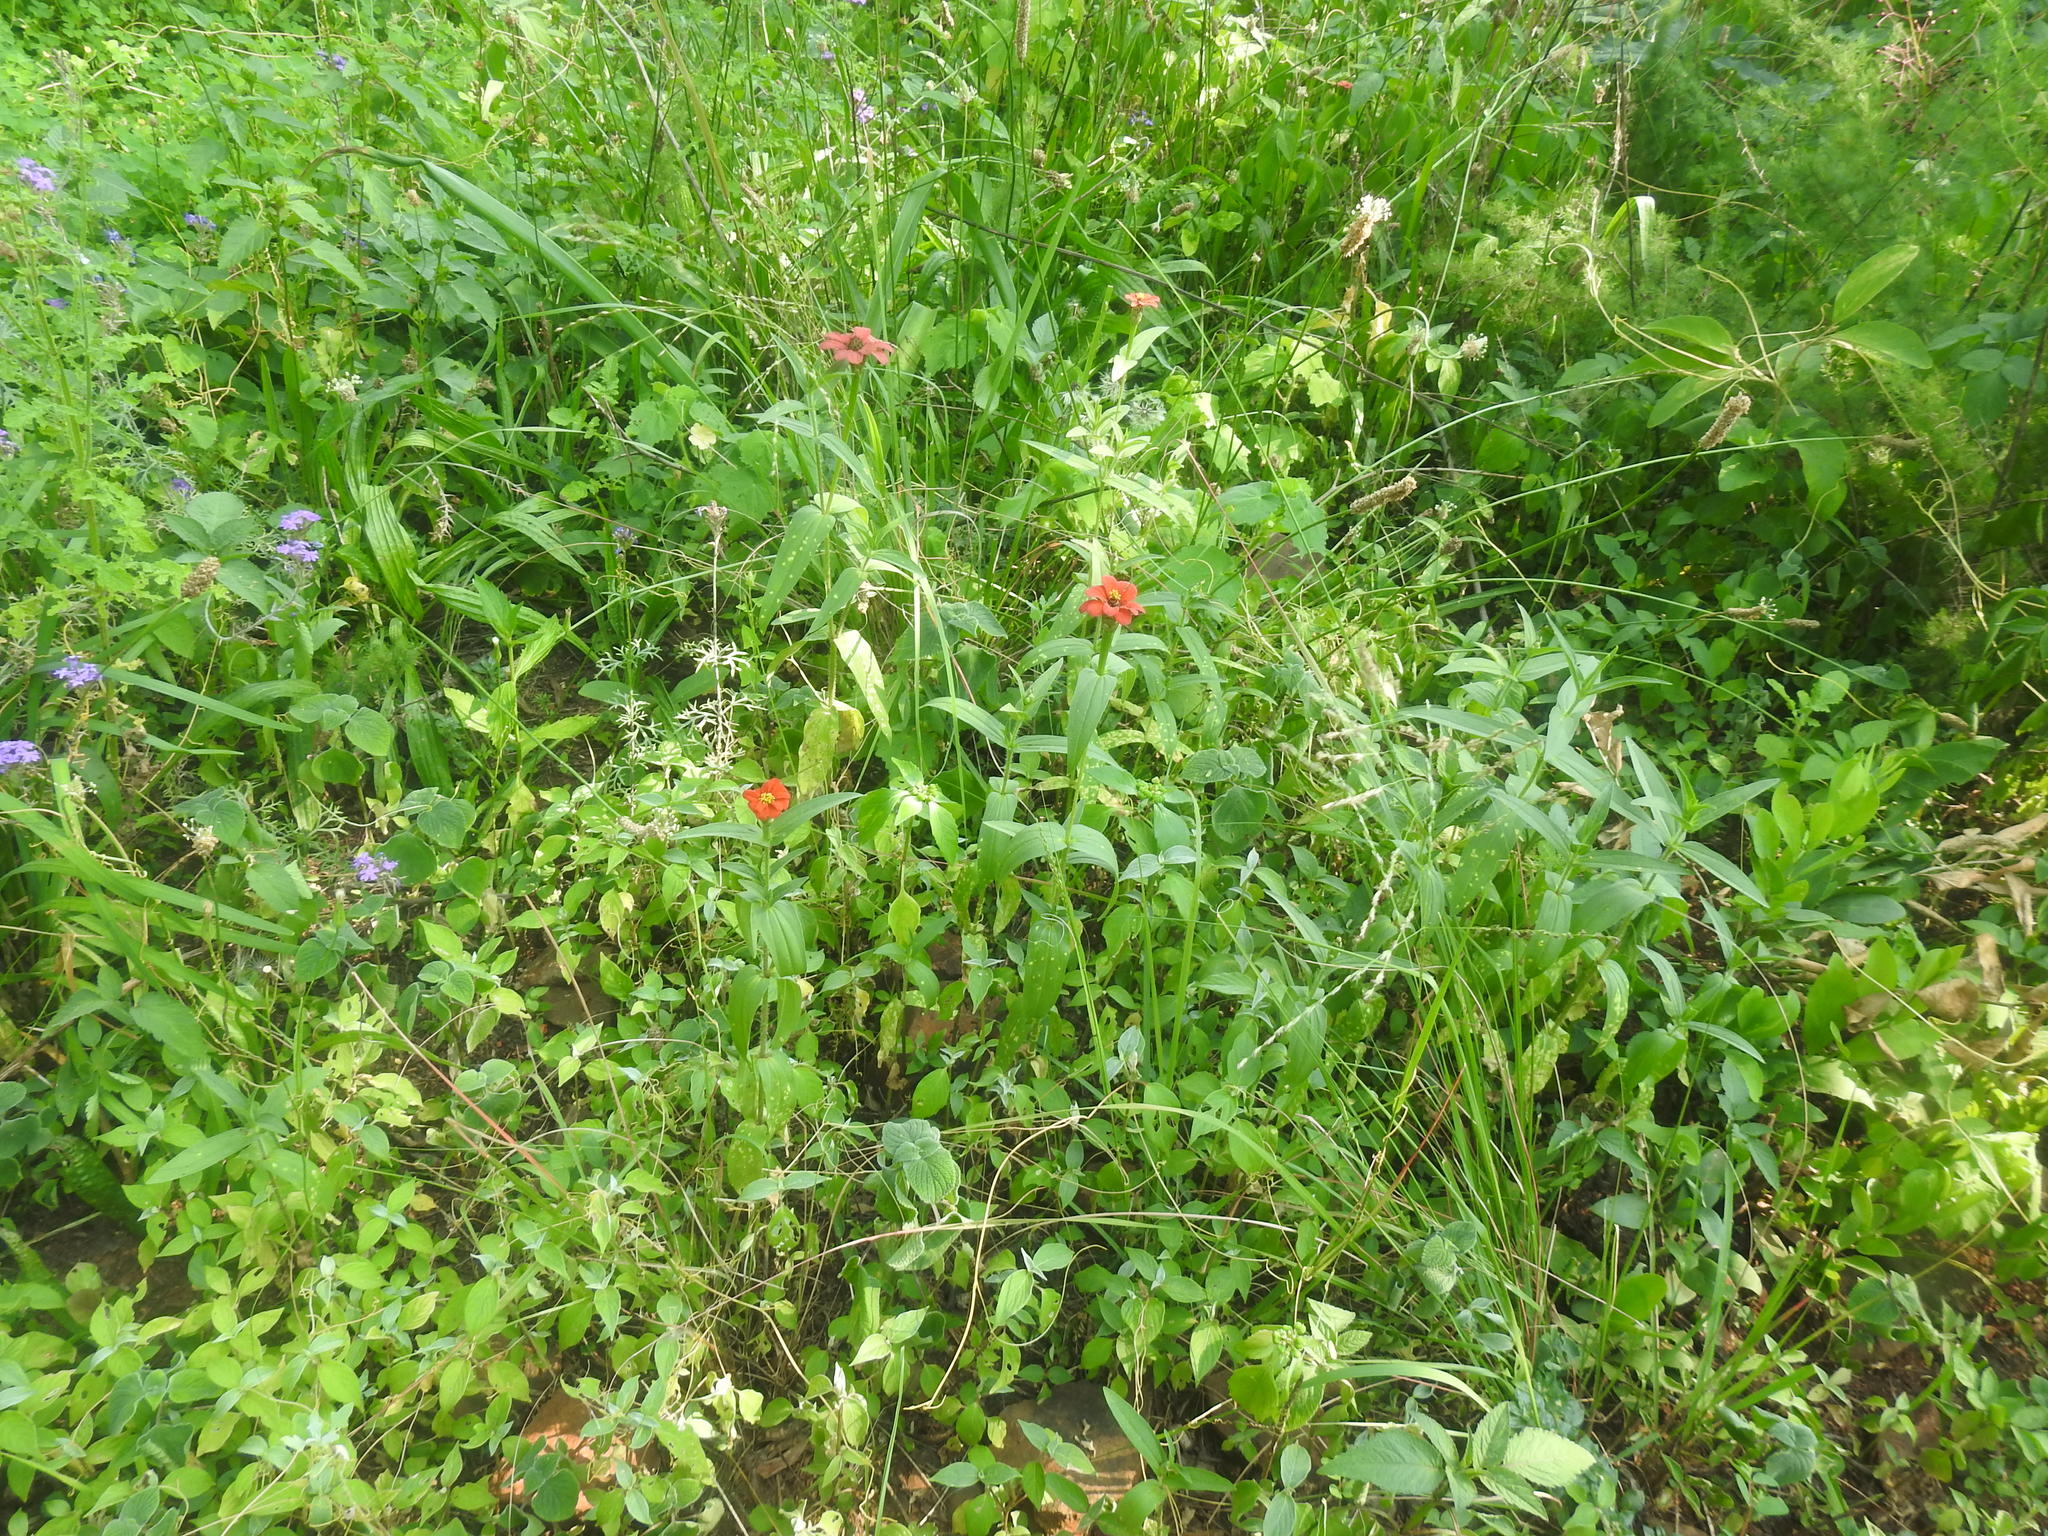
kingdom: Plantae
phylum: Tracheophyta
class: Magnoliopsida
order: Asterales
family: Asteraceae
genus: Zinnia
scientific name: Zinnia peruviana
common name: Peruvian zinnia
